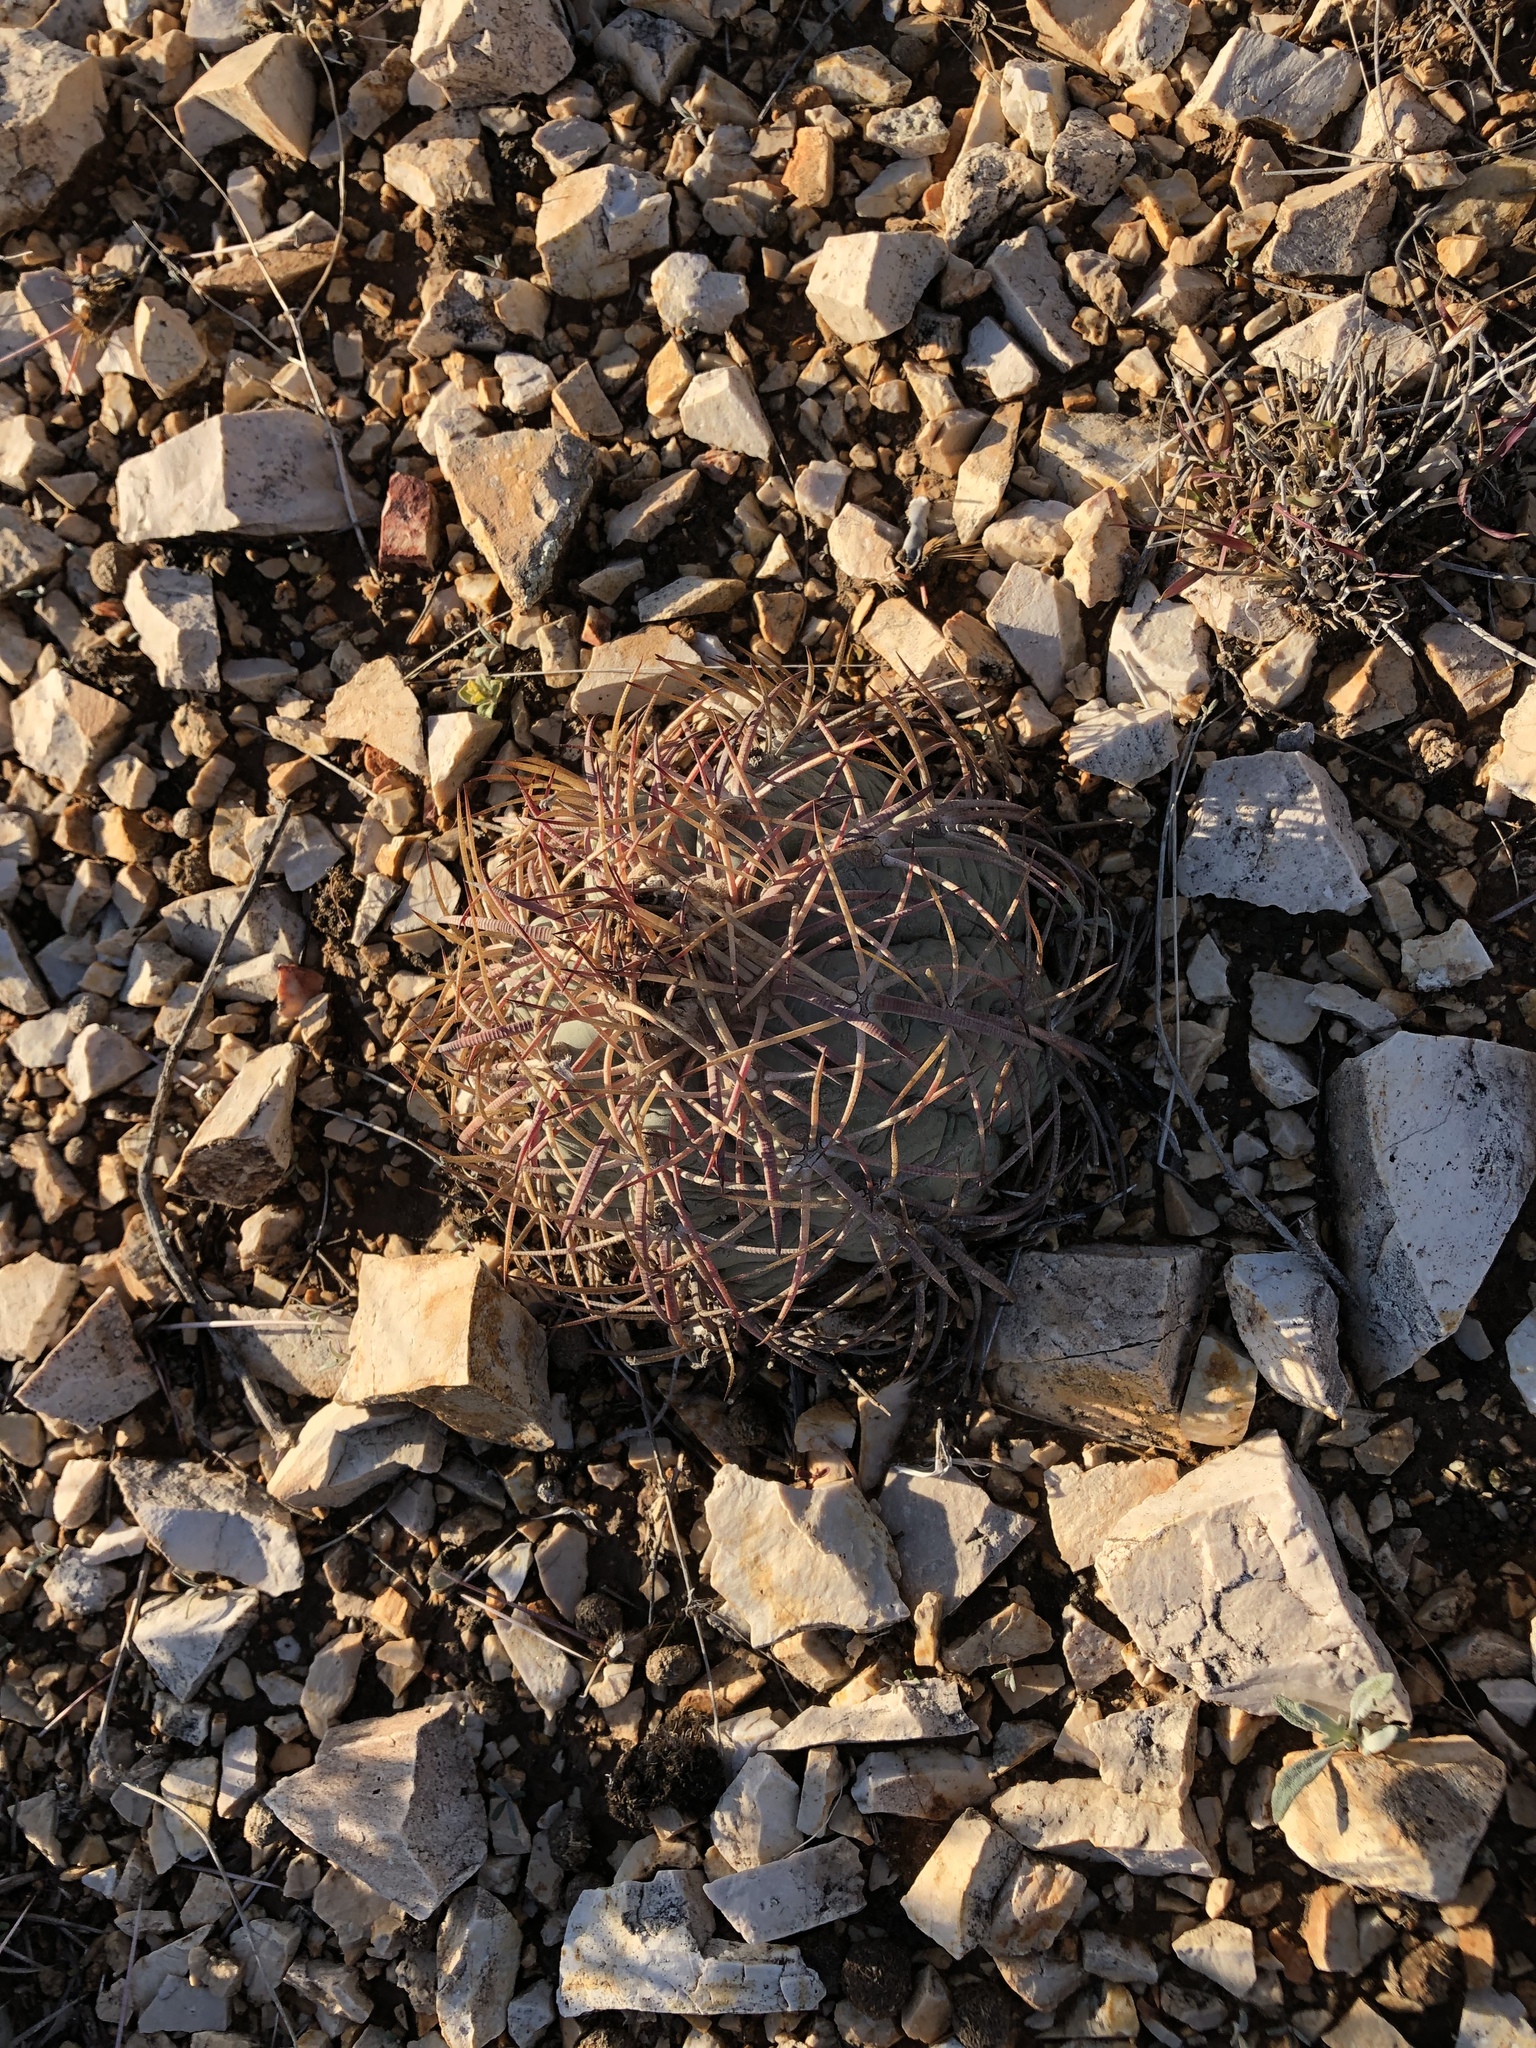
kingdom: Plantae
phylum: Tracheophyta
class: Magnoliopsida
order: Caryophyllales
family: Cactaceae
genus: Echinocactus
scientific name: Echinocactus horizonthalonius
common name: Devilshead
